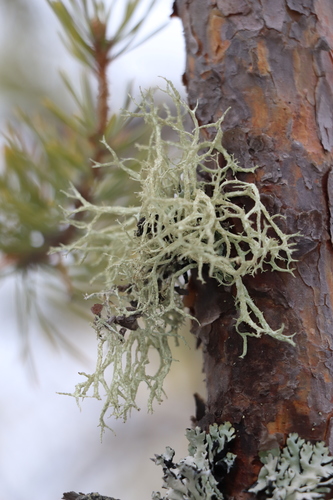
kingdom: Fungi
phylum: Ascomycota
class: Lecanoromycetes
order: Lecanorales
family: Parmeliaceae
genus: Evernia
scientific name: Evernia mesomorpha
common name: Boreal oak moss lichen
